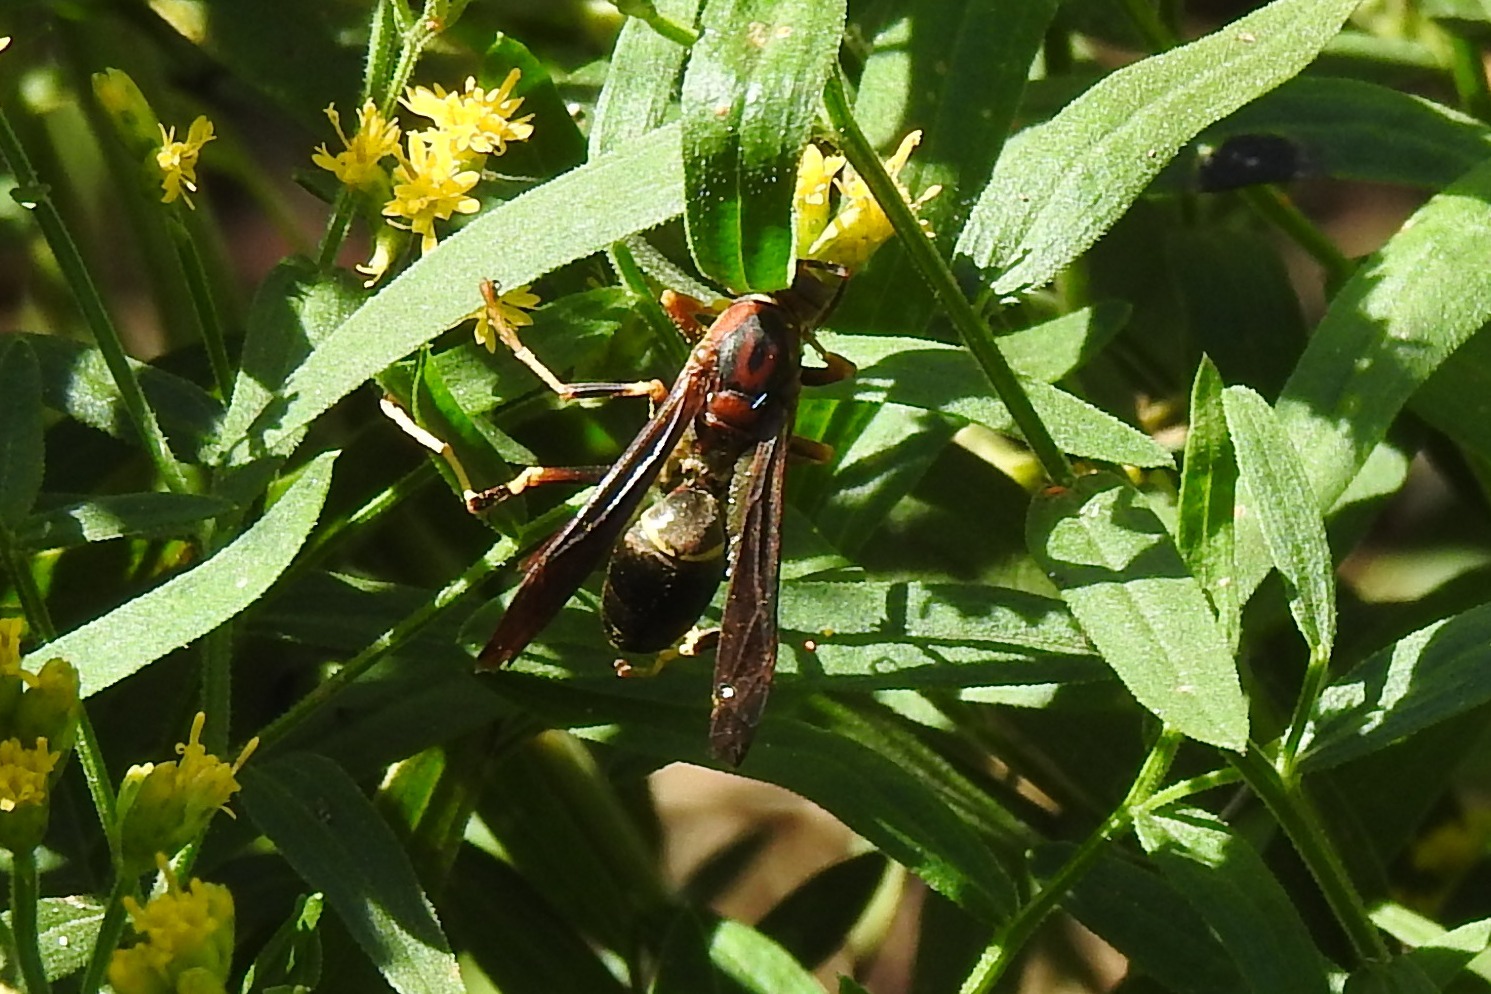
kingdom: Animalia
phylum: Arthropoda
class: Insecta
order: Hymenoptera
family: Eumenidae
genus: Polistes
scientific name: Polistes metricus
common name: Metric paper wasp
